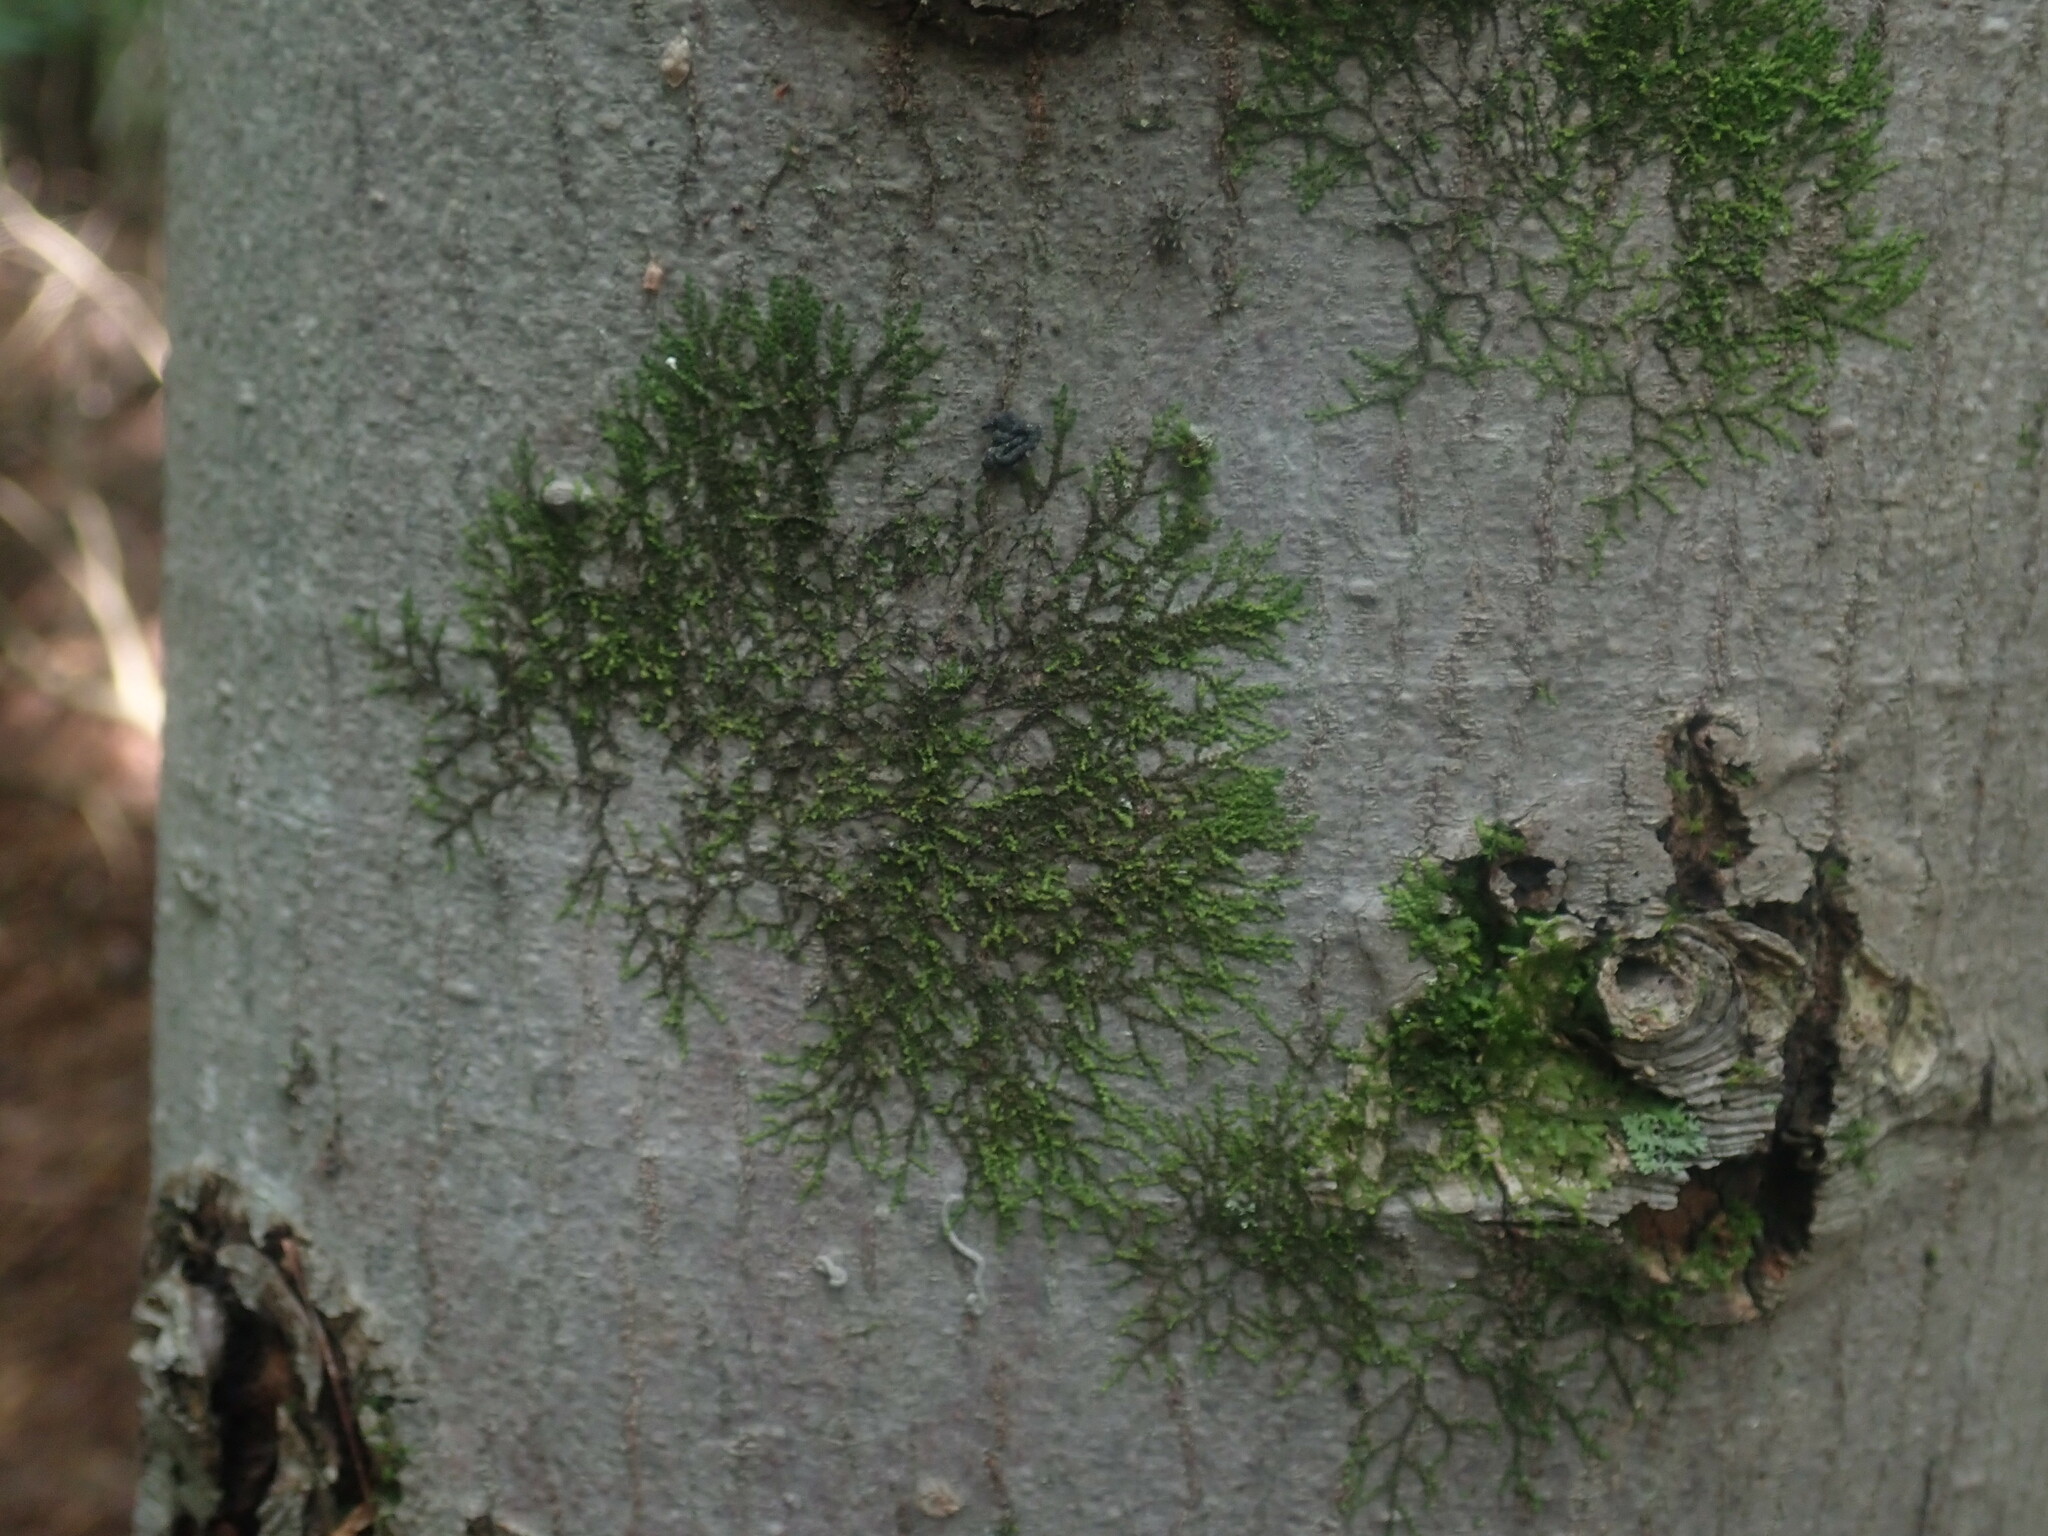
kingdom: Plantae
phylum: Marchantiophyta
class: Jungermanniopsida
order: Porellales
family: Frullaniaceae
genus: Frullania
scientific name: Frullania
